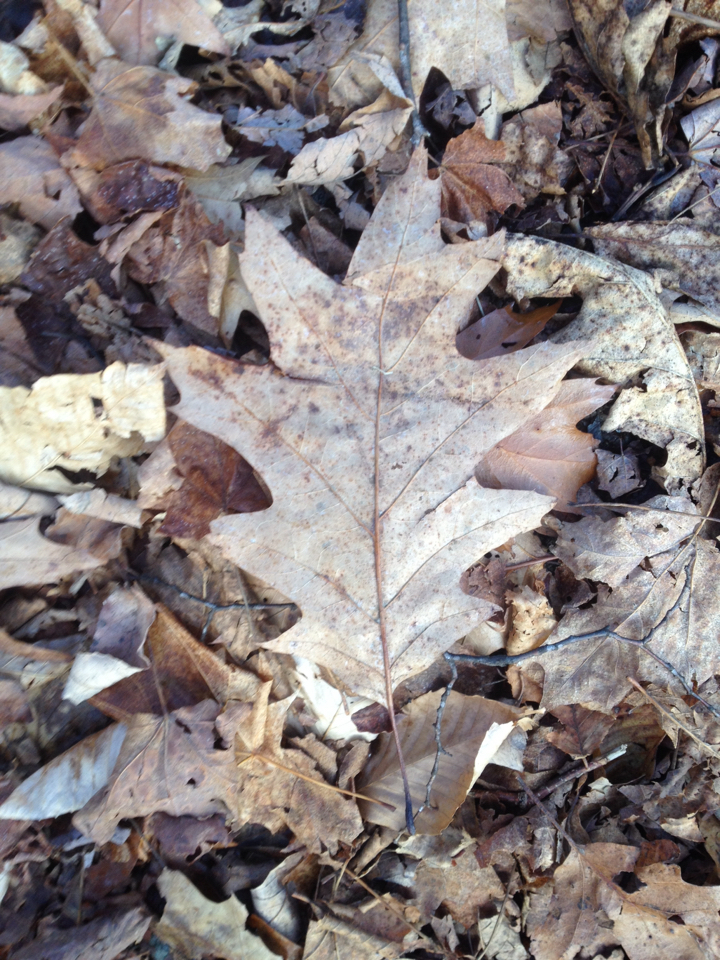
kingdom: Plantae
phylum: Tracheophyta
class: Magnoliopsida
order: Fagales
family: Fagaceae
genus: Quercus
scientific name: Quercus rubra
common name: Red oak
